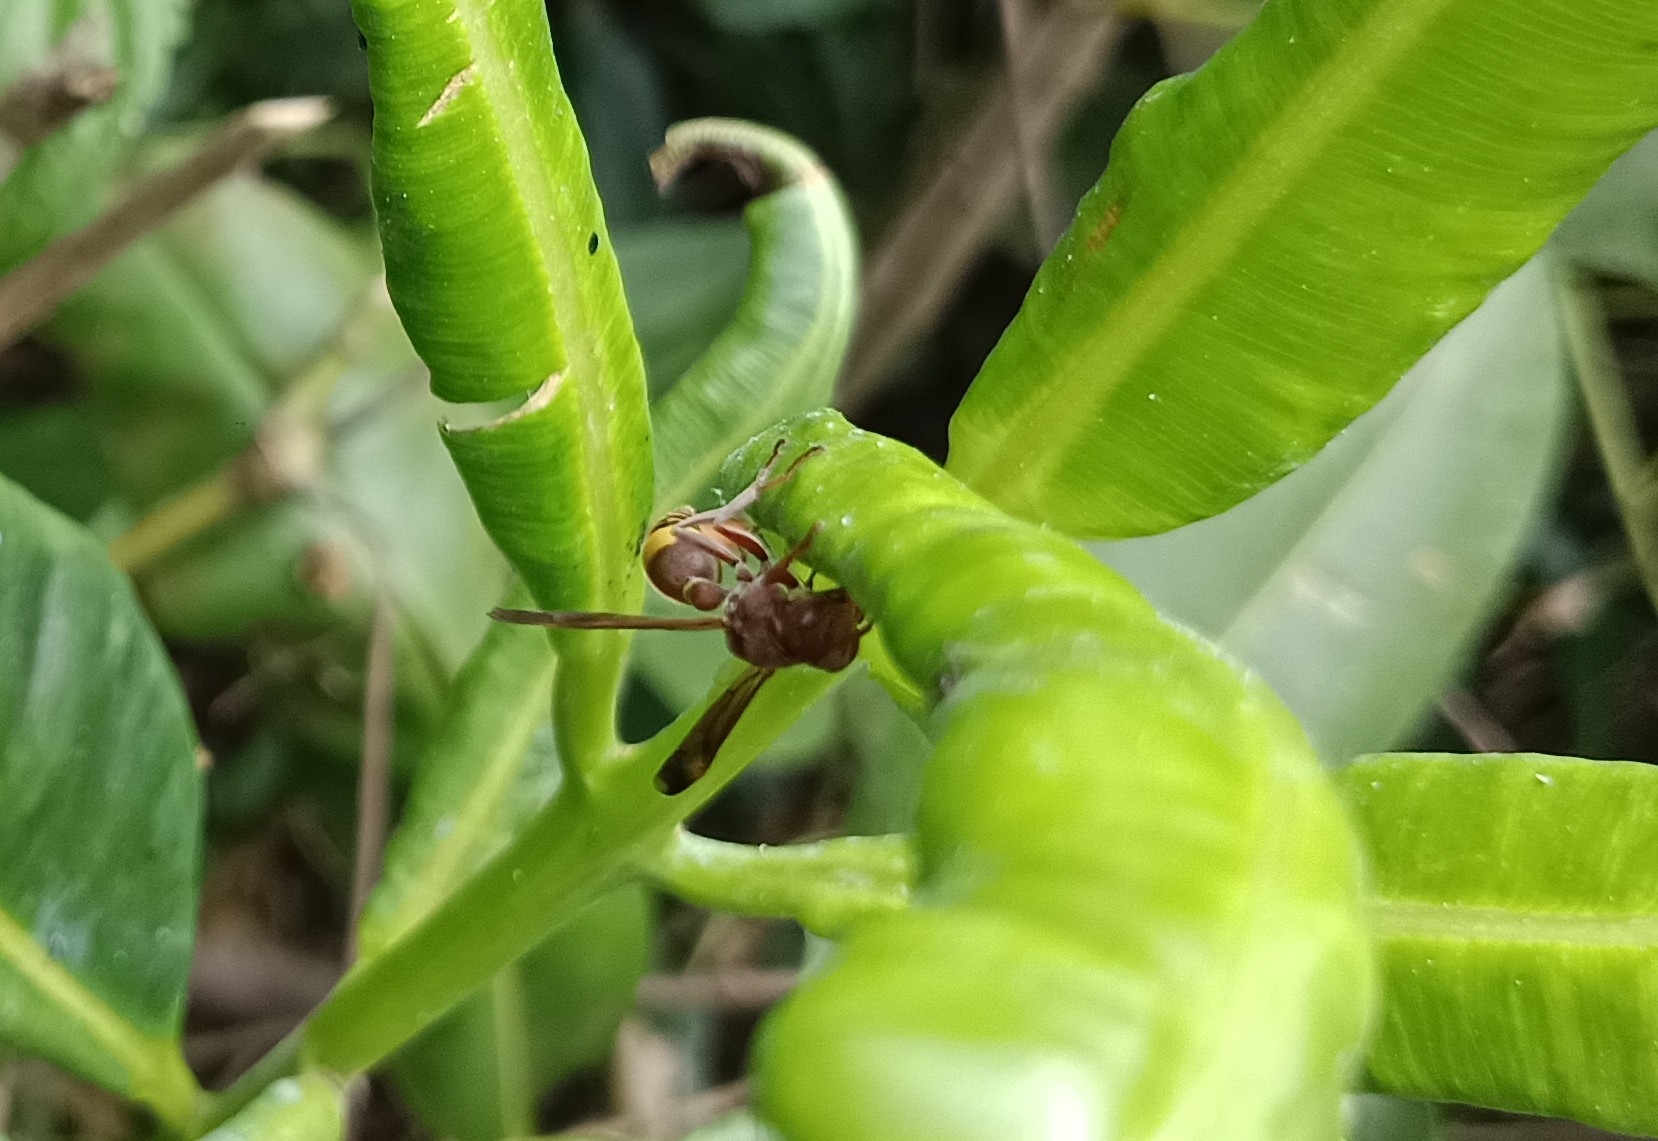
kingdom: Animalia
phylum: Arthropoda
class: Insecta
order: Hymenoptera
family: Vespidae
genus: Ropalidia
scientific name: Ropalidia
